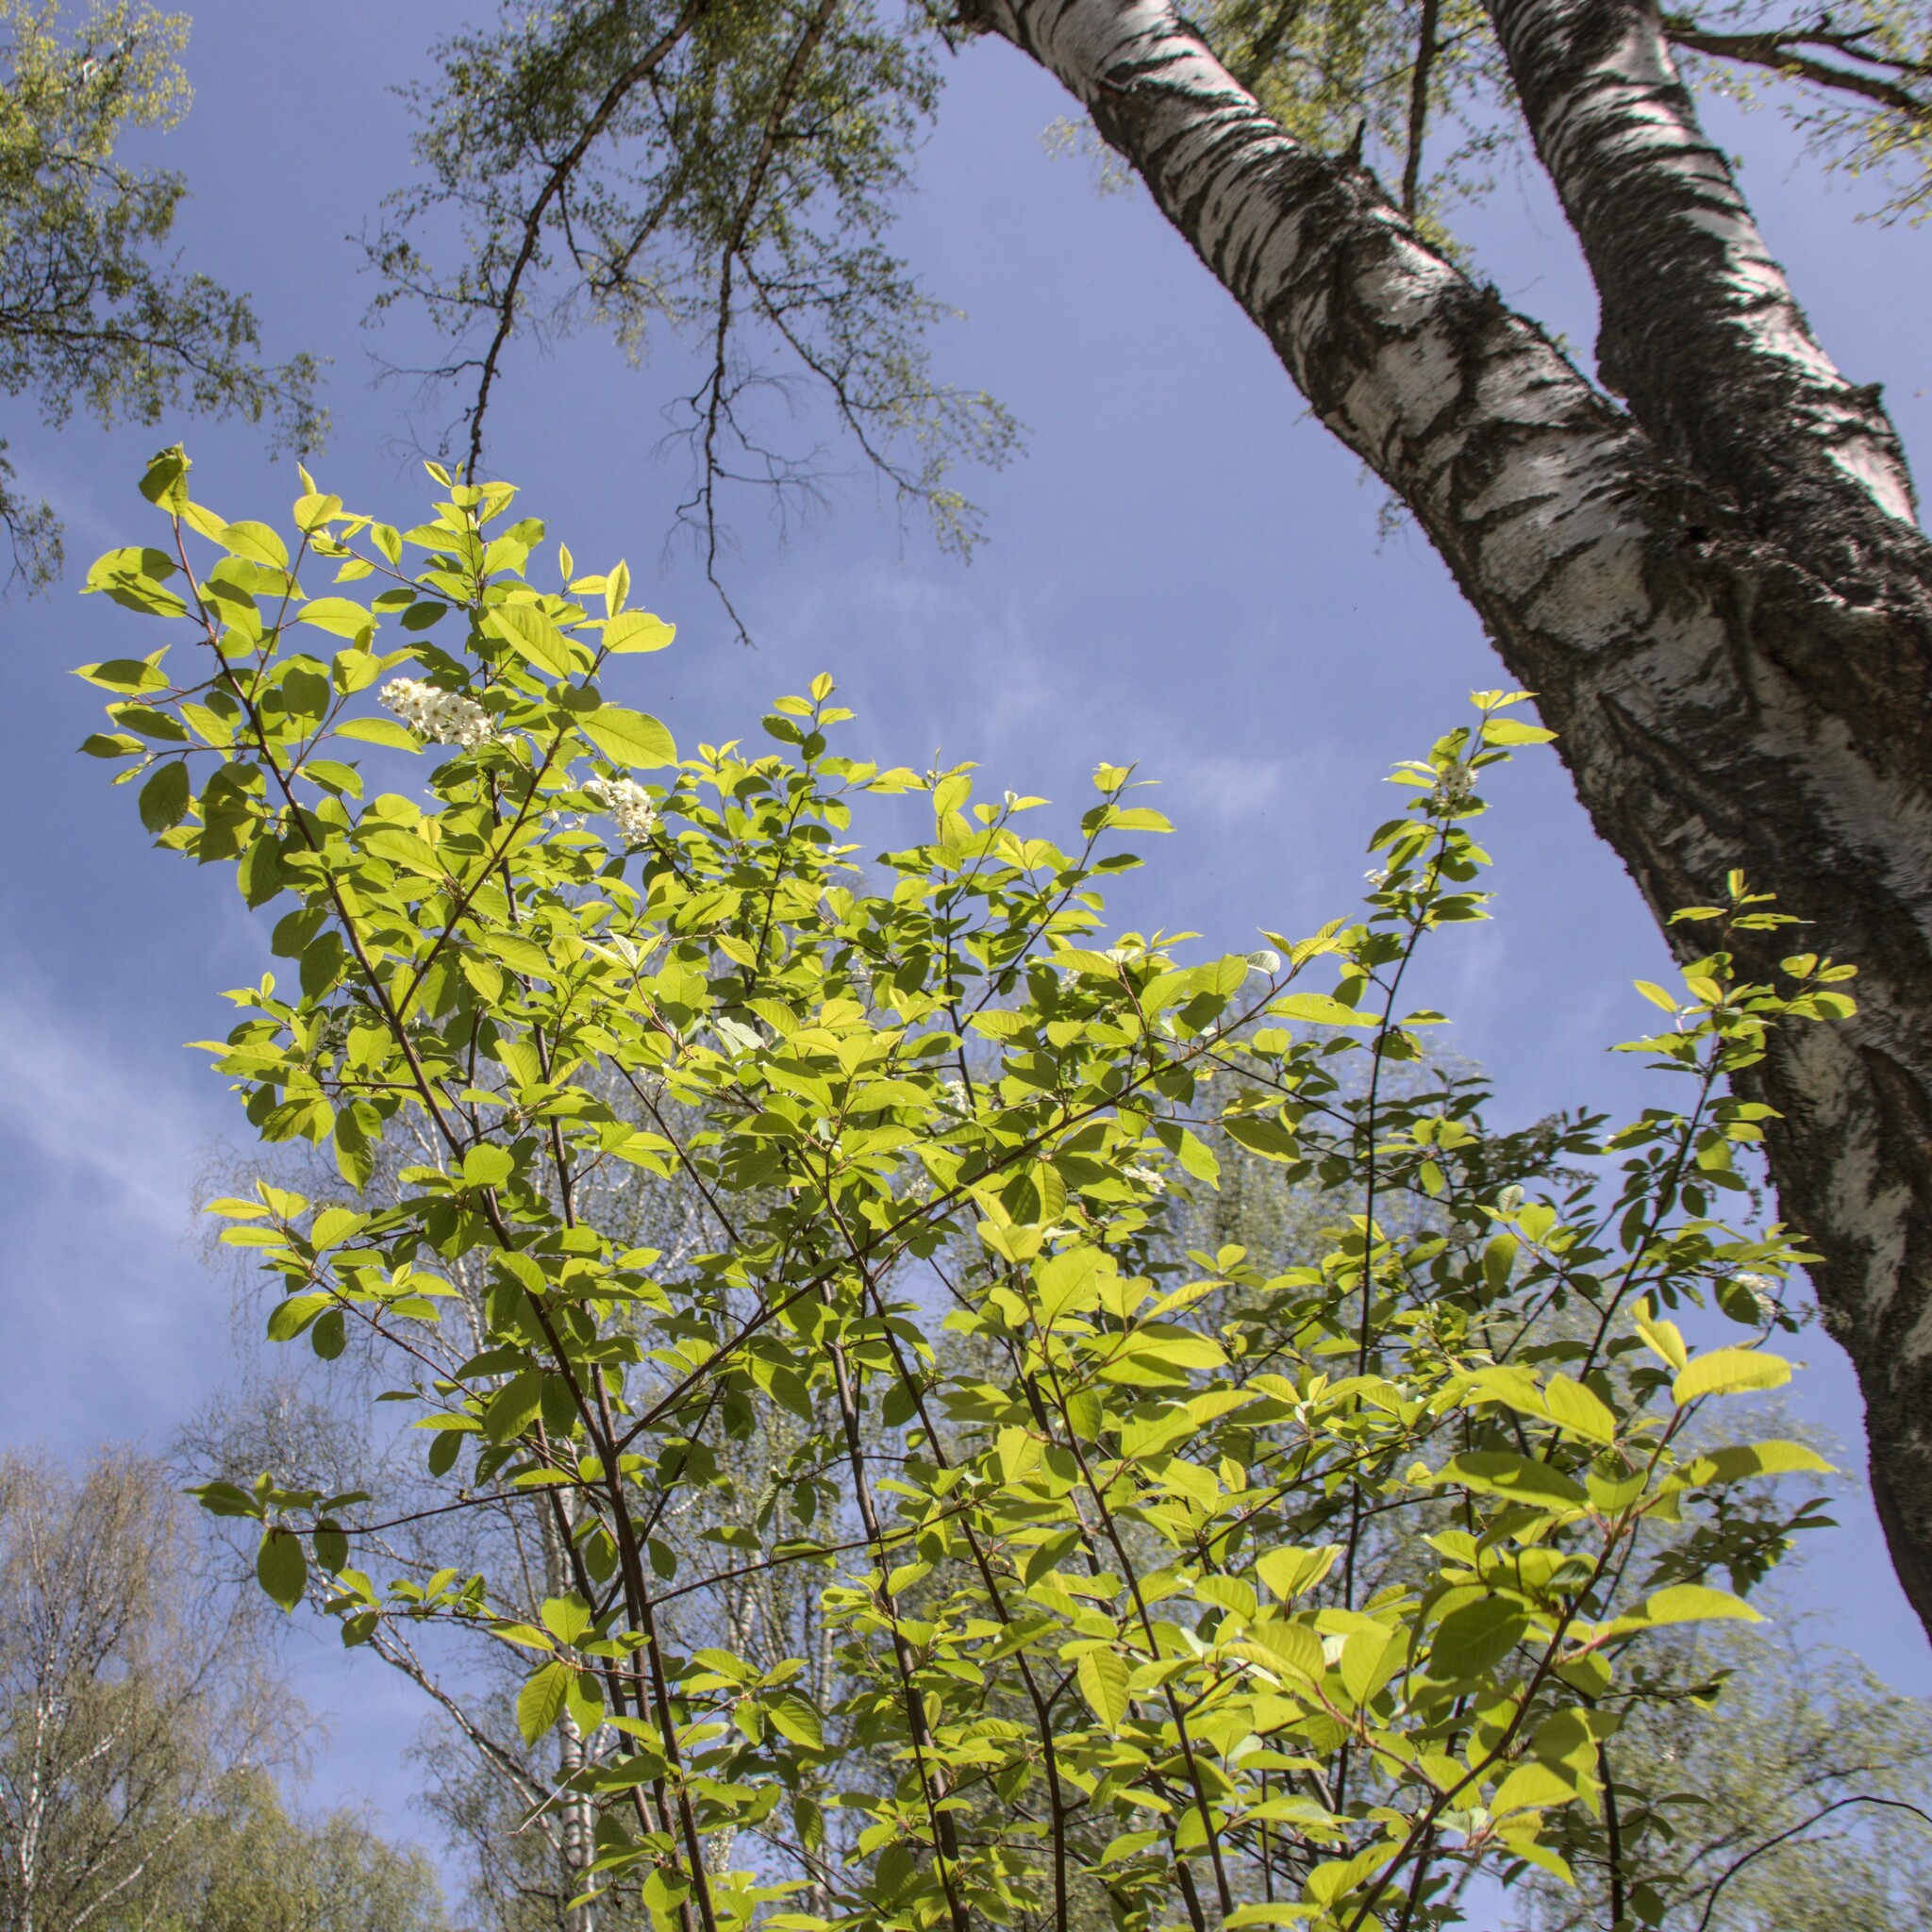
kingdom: Plantae
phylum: Tracheophyta
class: Magnoliopsida
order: Rosales
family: Rosaceae
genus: Prunus
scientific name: Prunus padus
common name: Bird cherry
